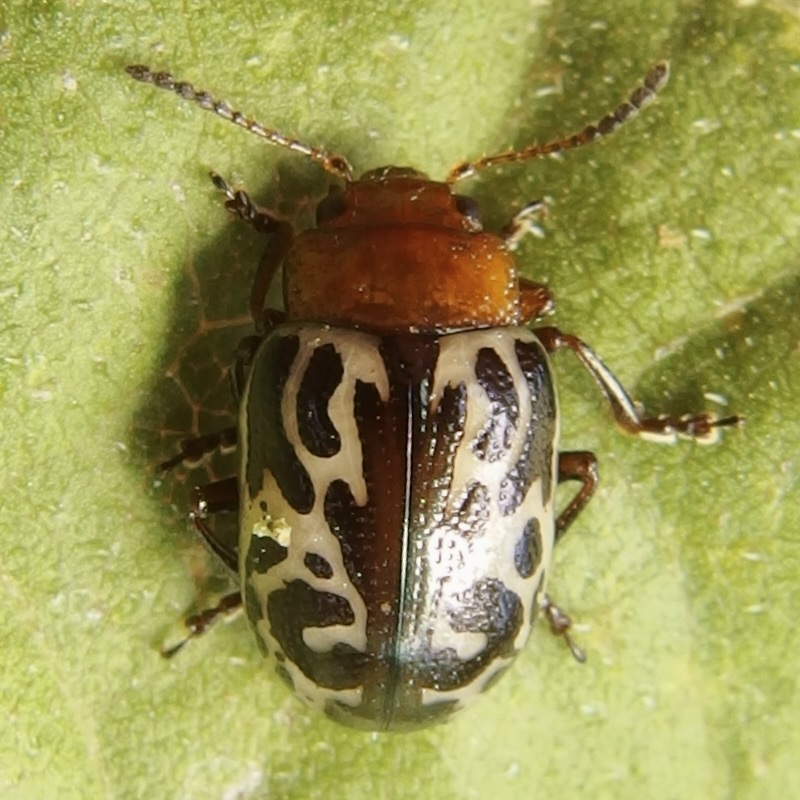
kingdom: Animalia
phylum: Arthropoda
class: Insecta
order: Coleoptera
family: Chrysomelidae
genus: Calligrapha
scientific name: Calligrapha
